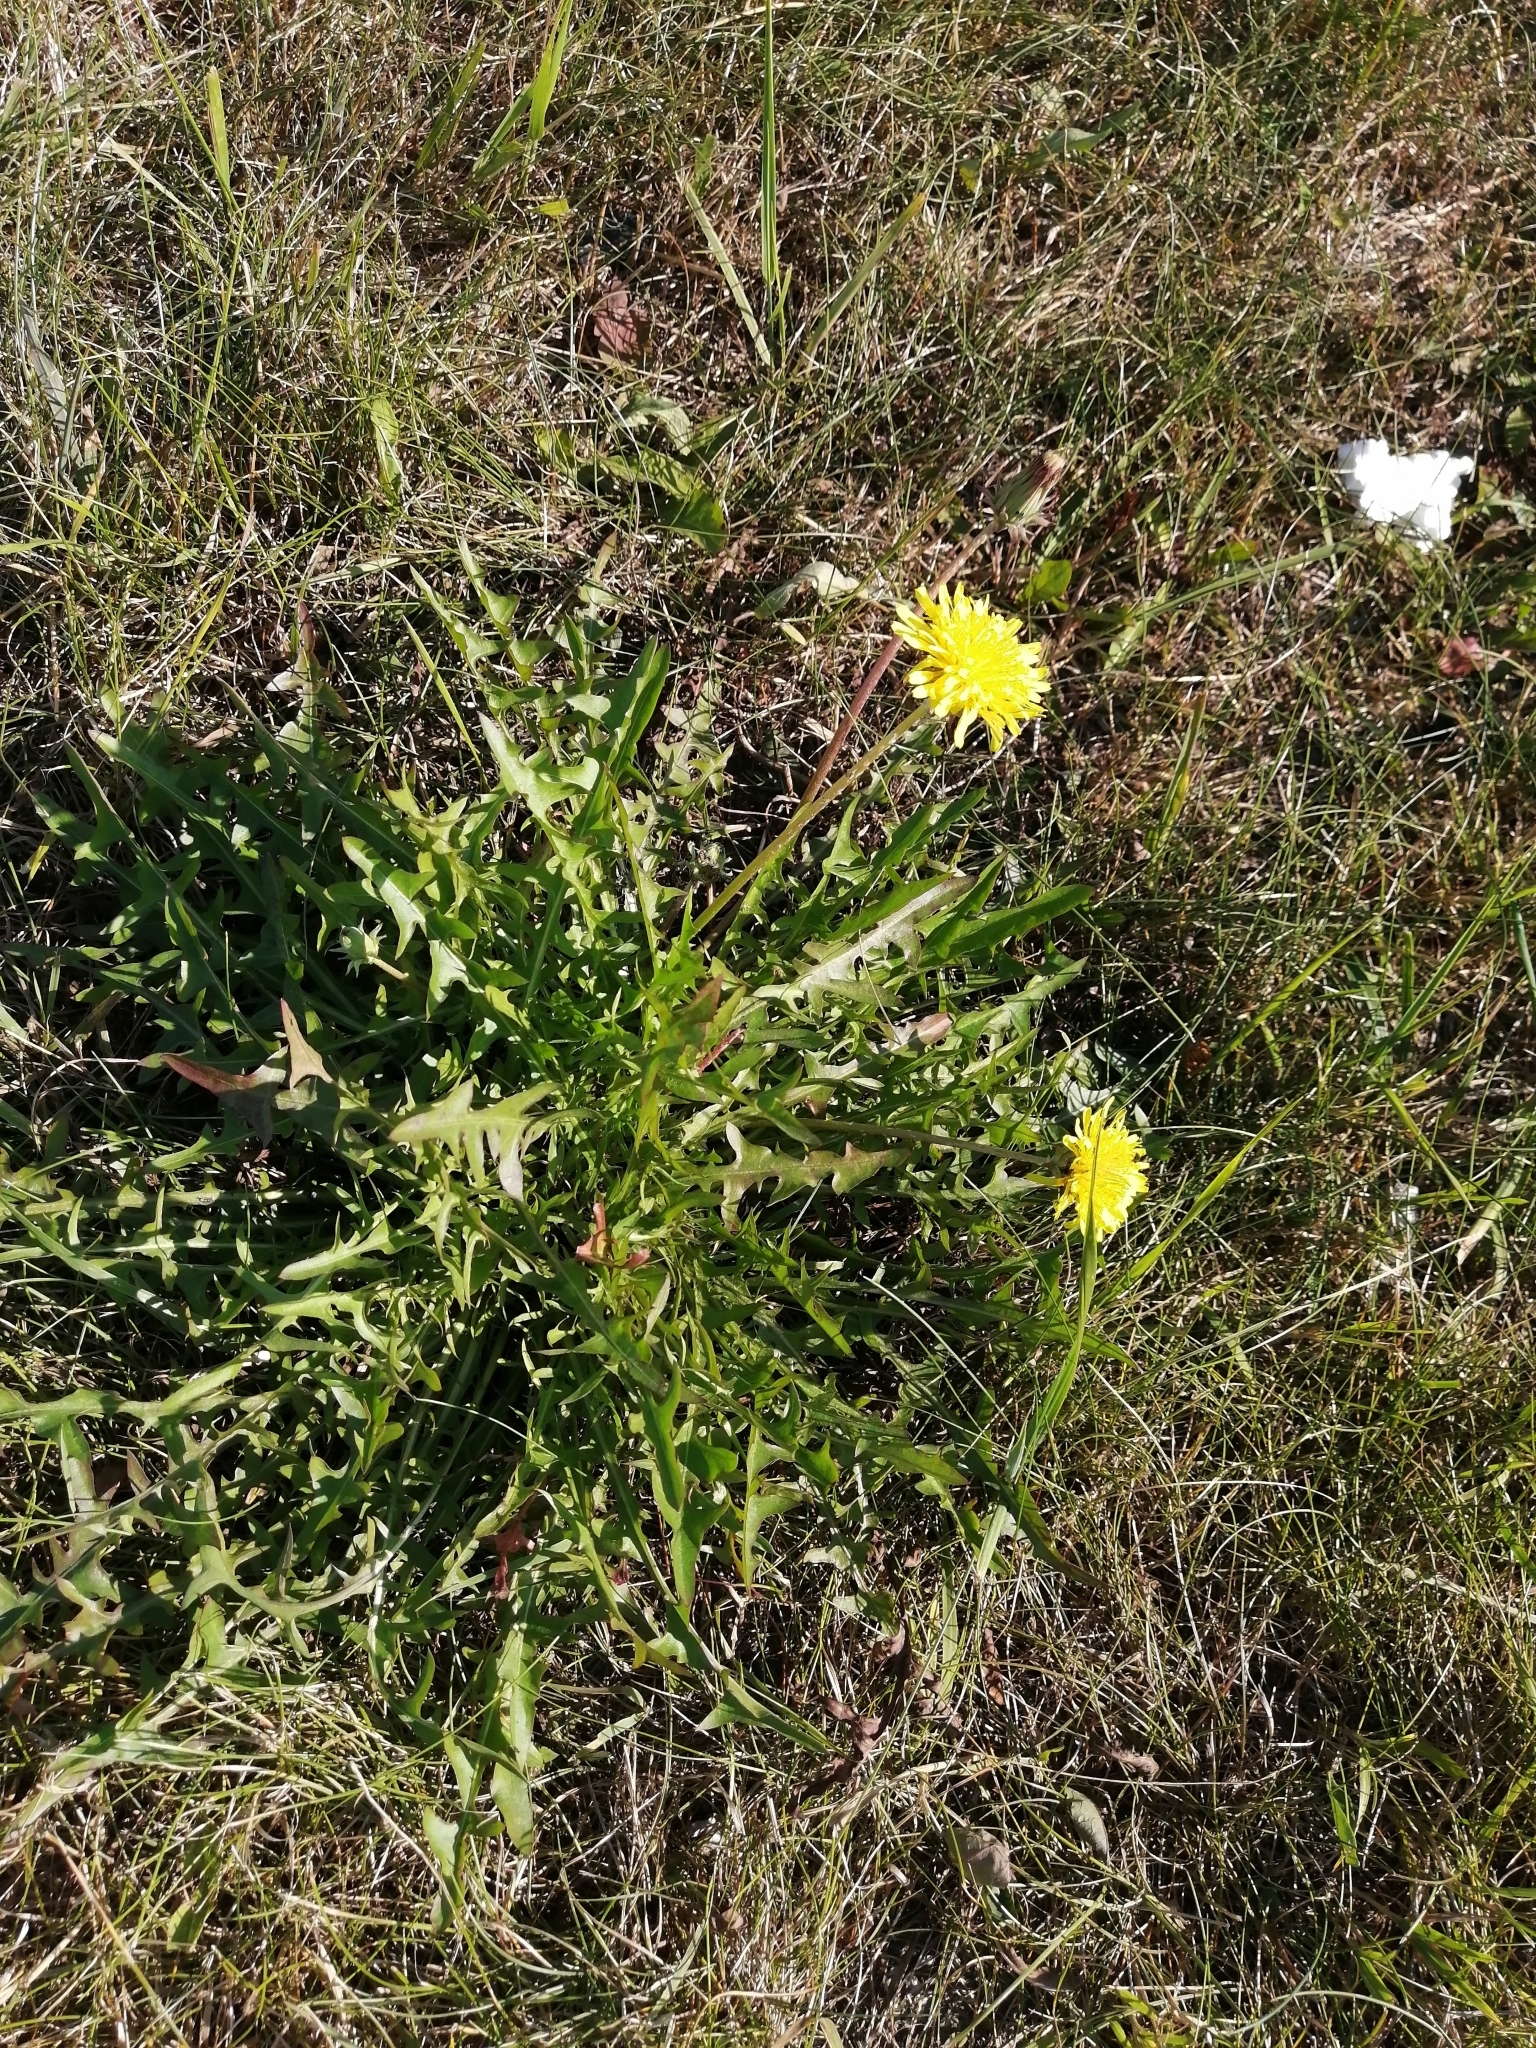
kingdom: Plantae
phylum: Tracheophyta
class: Magnoliopsida
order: Asterales
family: Asteraceae
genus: Taraxacum
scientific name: Taraxacum officinale
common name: Common dandelion
